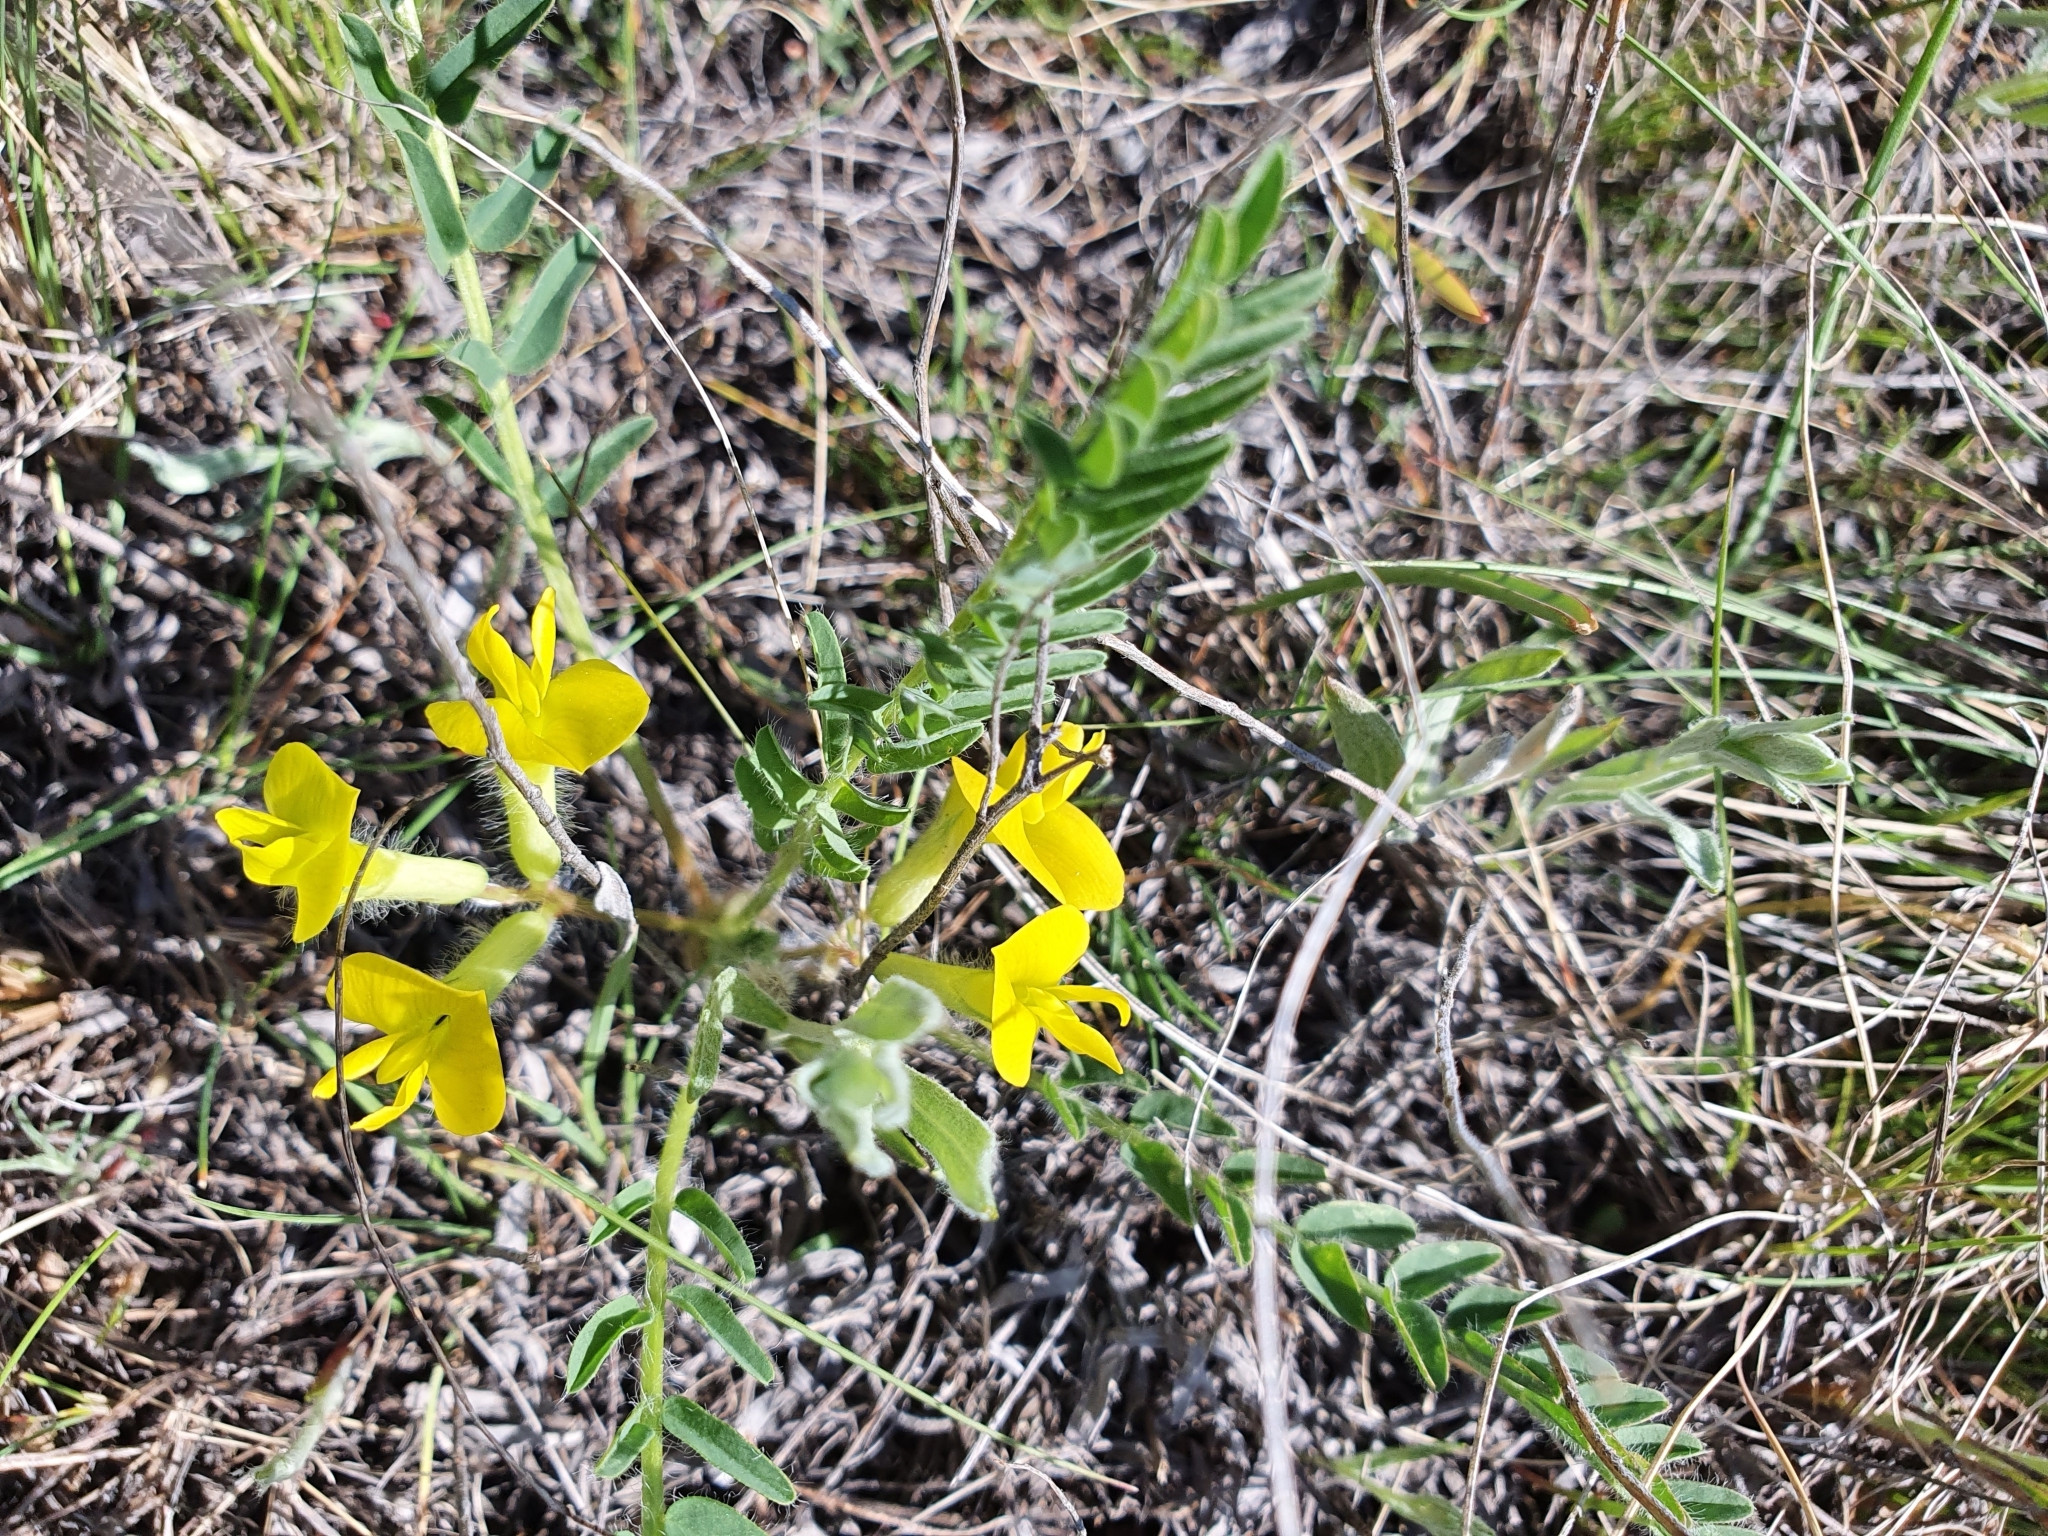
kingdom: Plantae
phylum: Tracheophyta
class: Magnoliopsida
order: Fabales
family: Fabaceae
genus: Astragalus
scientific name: Astragalus wolgensis
